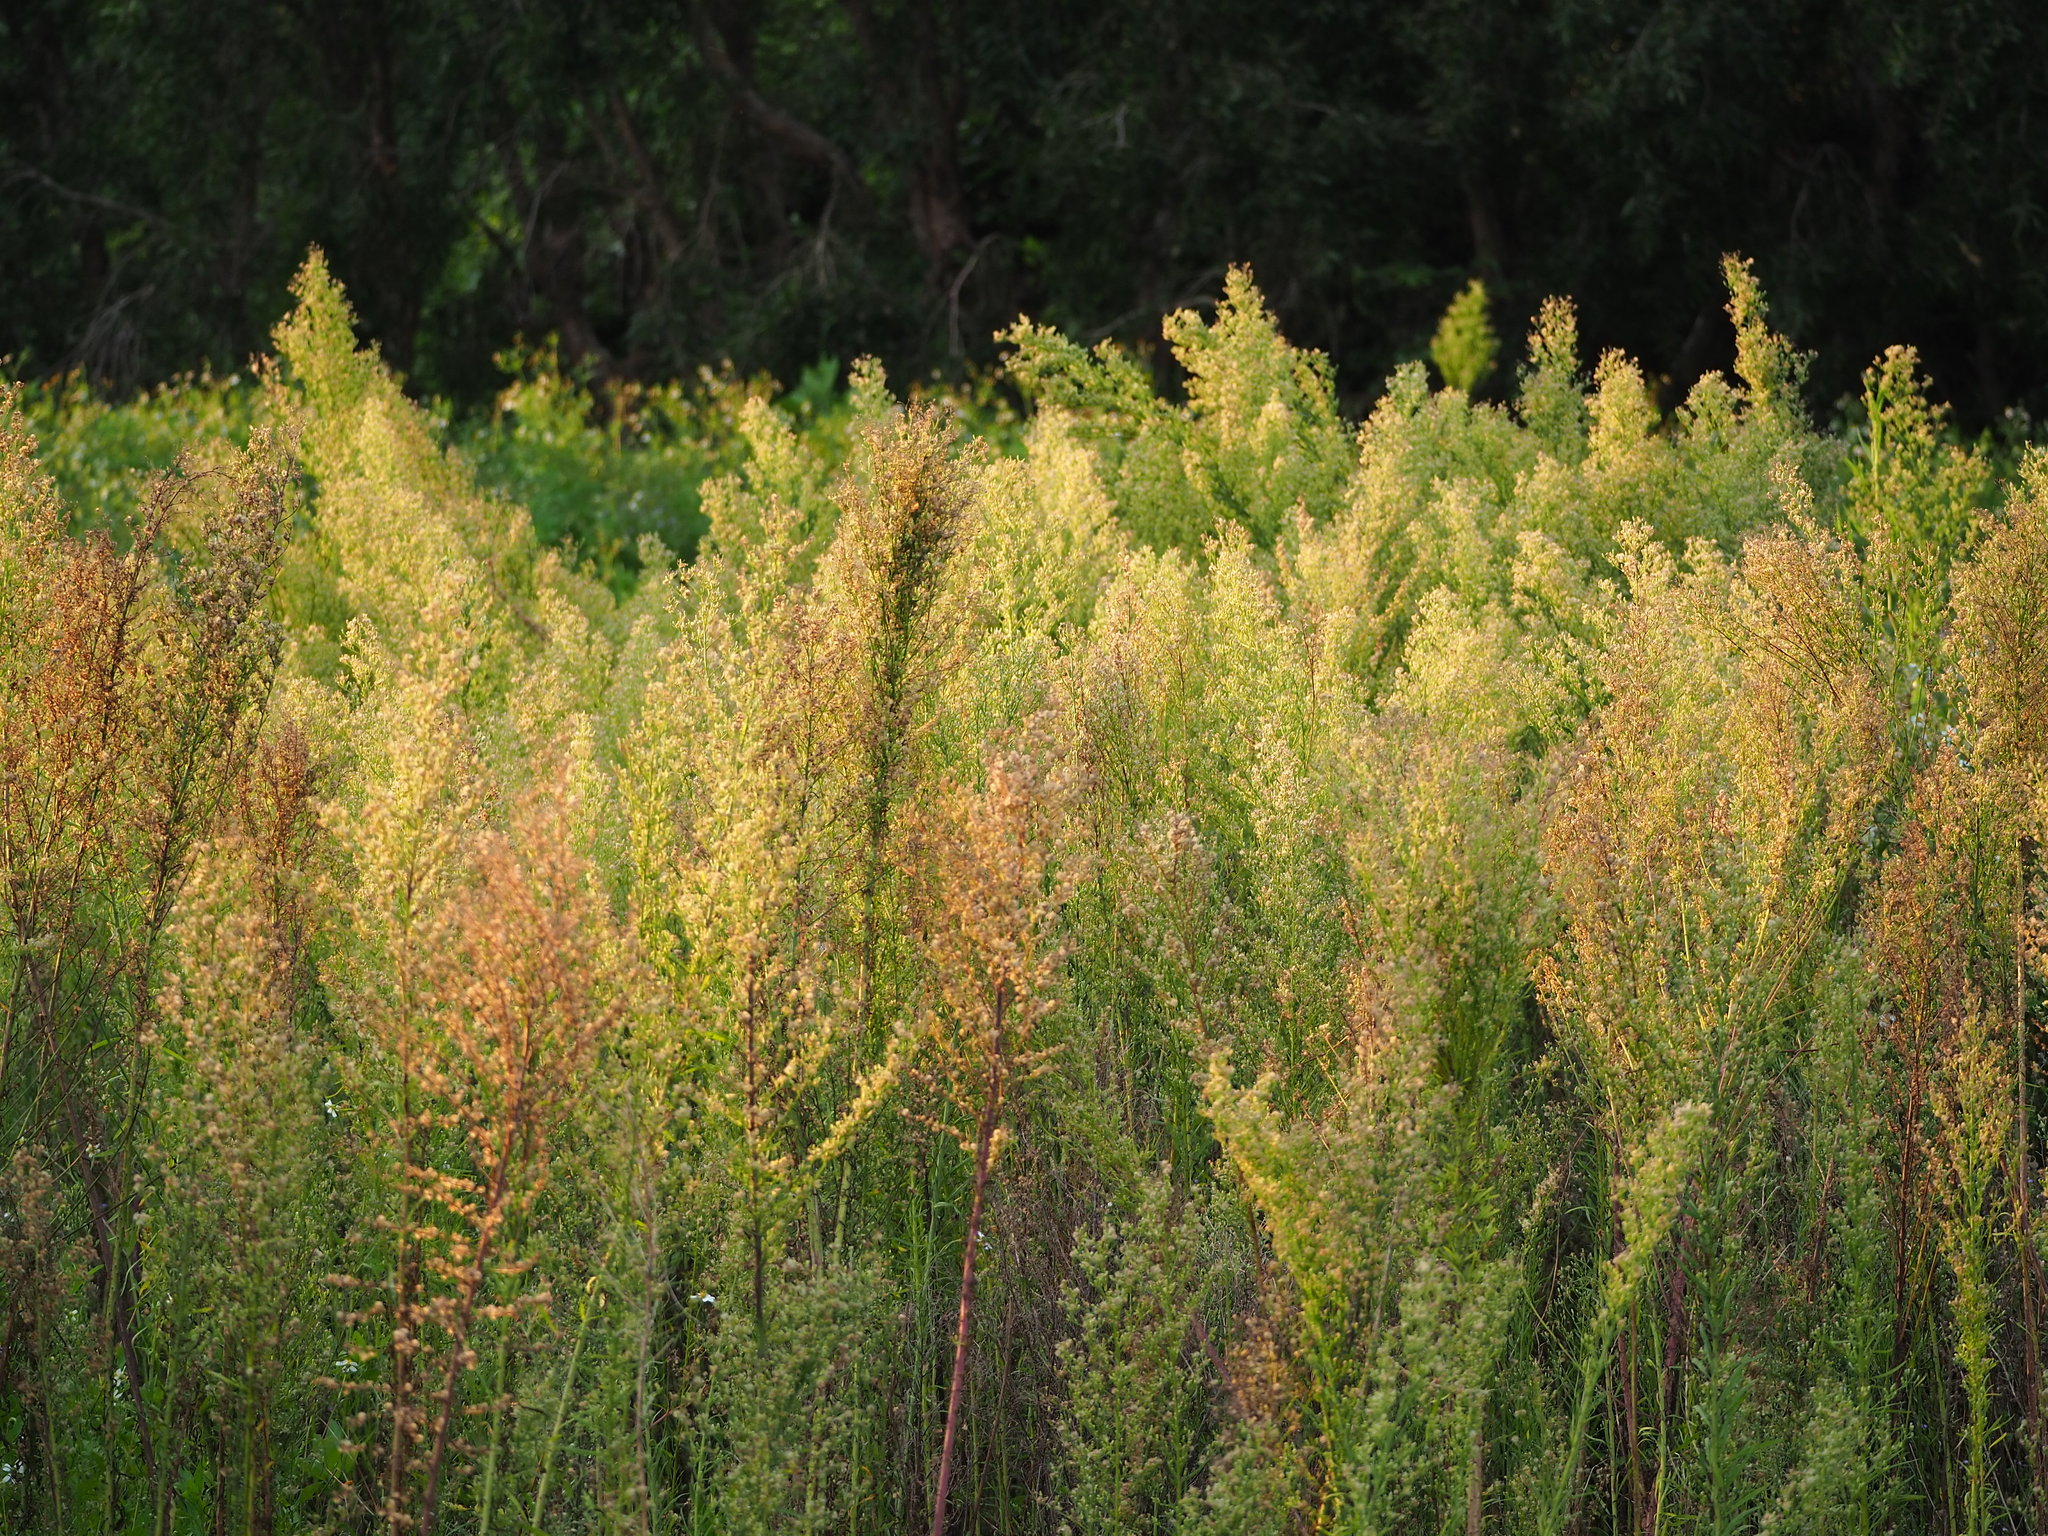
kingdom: Plantae
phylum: Tracheophyta
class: Magnoliopsida
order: Asterales
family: Asteraceae
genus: Erigeron
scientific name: Erigeron sumatrensis
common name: Daisy
